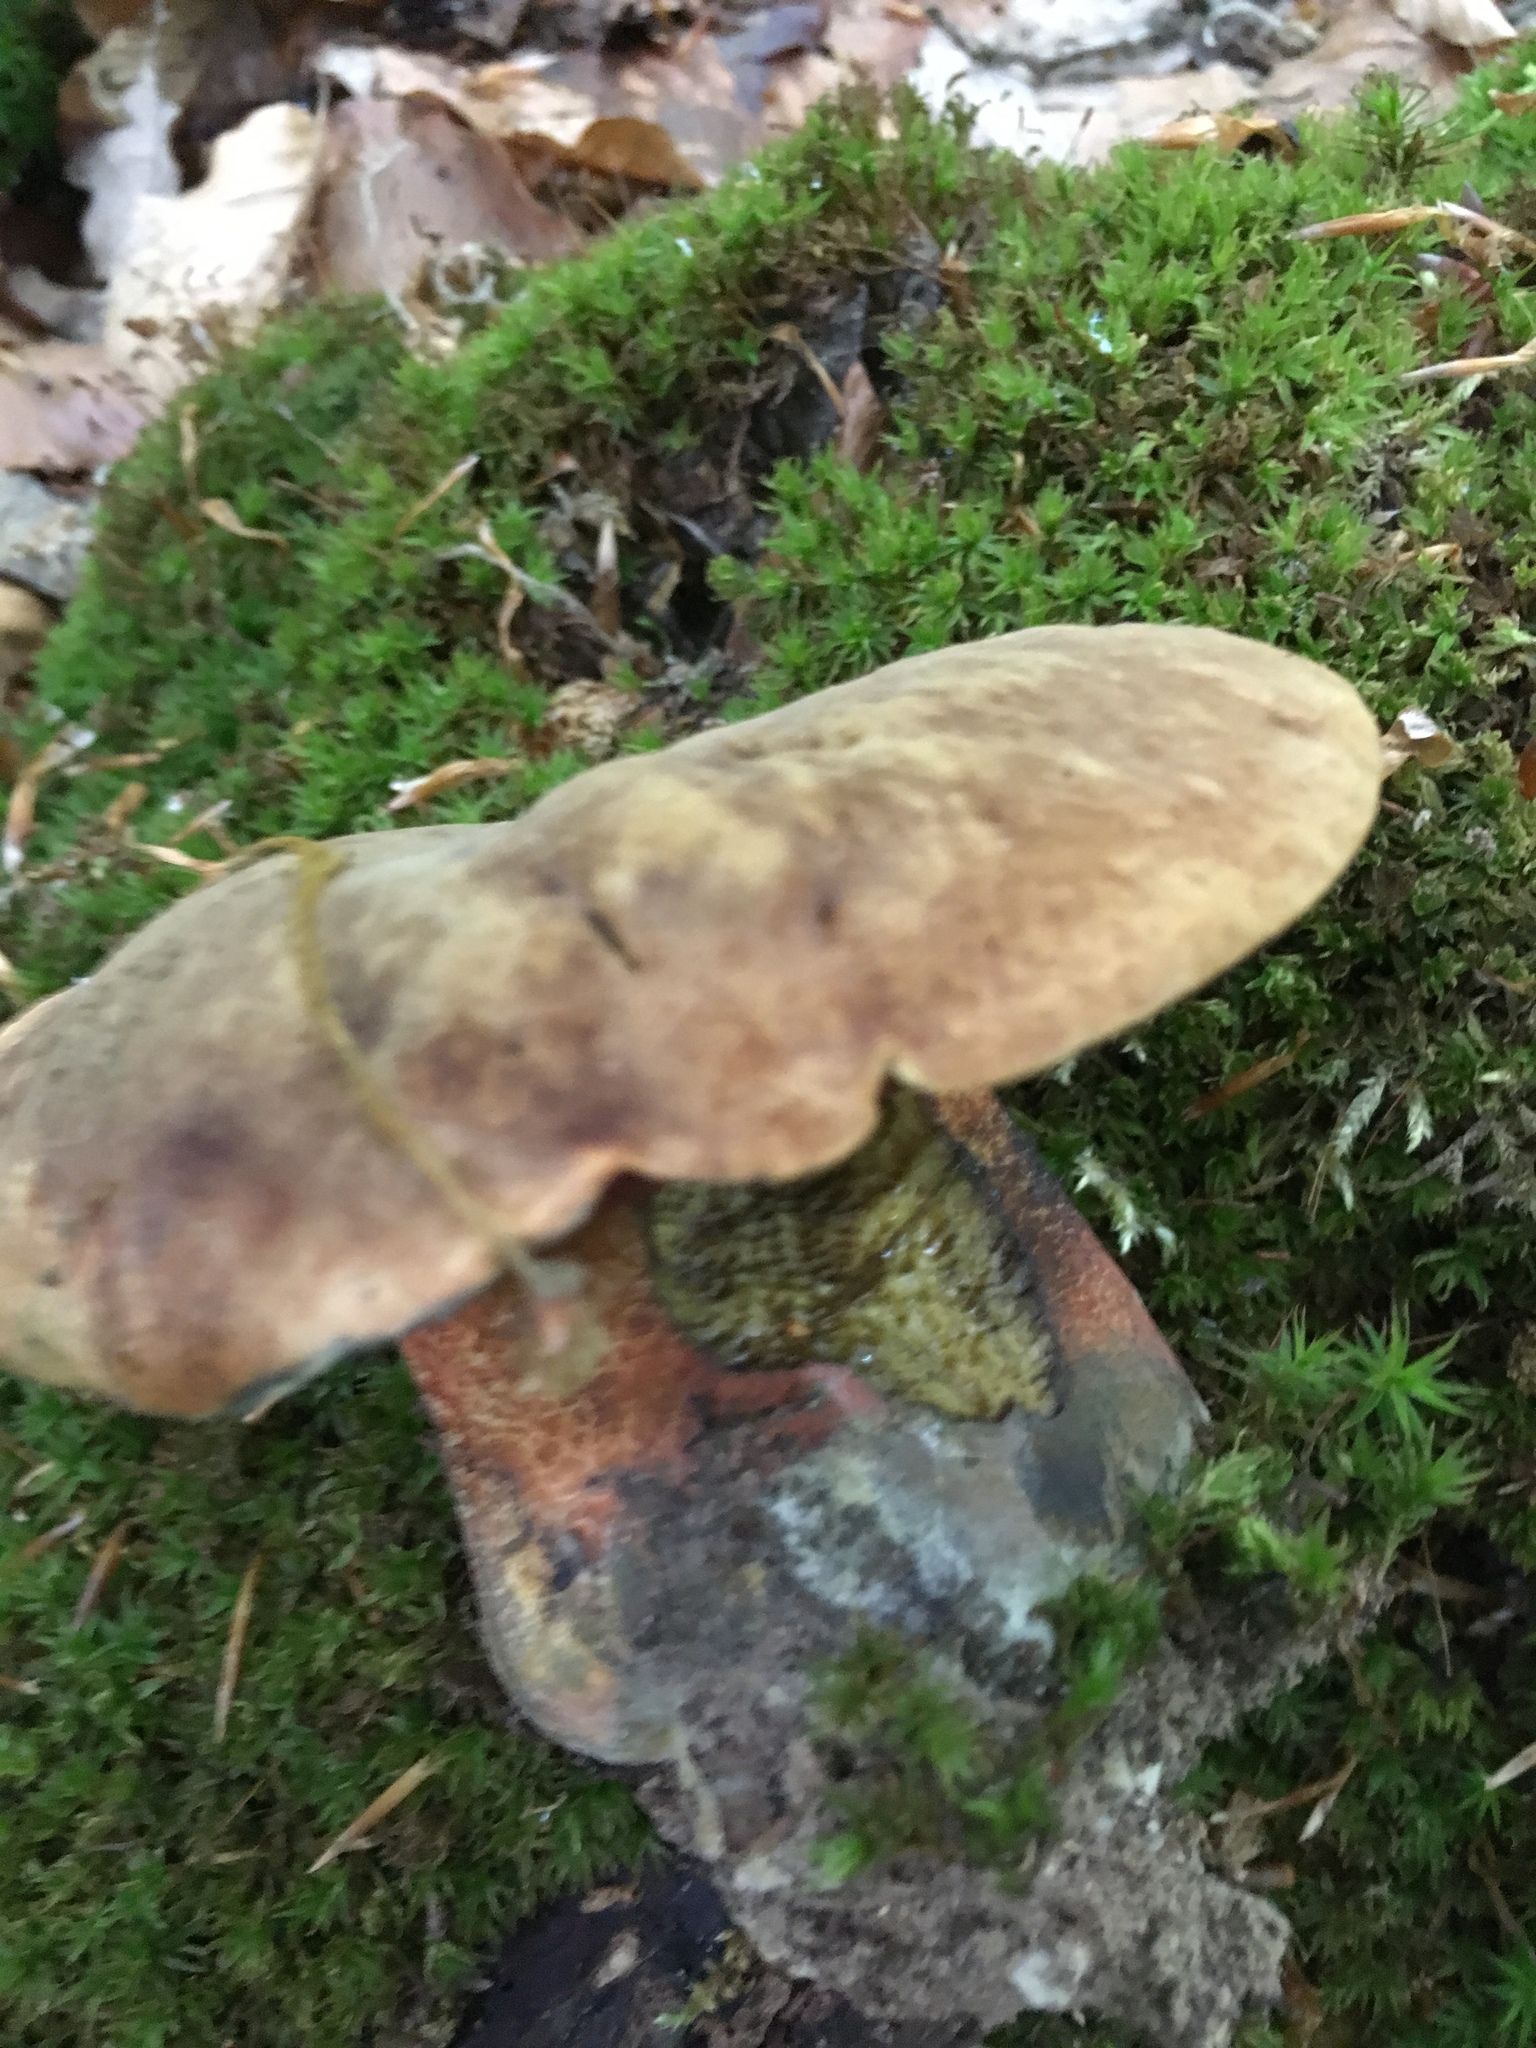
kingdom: Fungi
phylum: Basidiomycota
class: Agaricomycetes
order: Boletales
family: Boletaceae
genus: Neoboletus
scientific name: Neoboletus luridiformis
